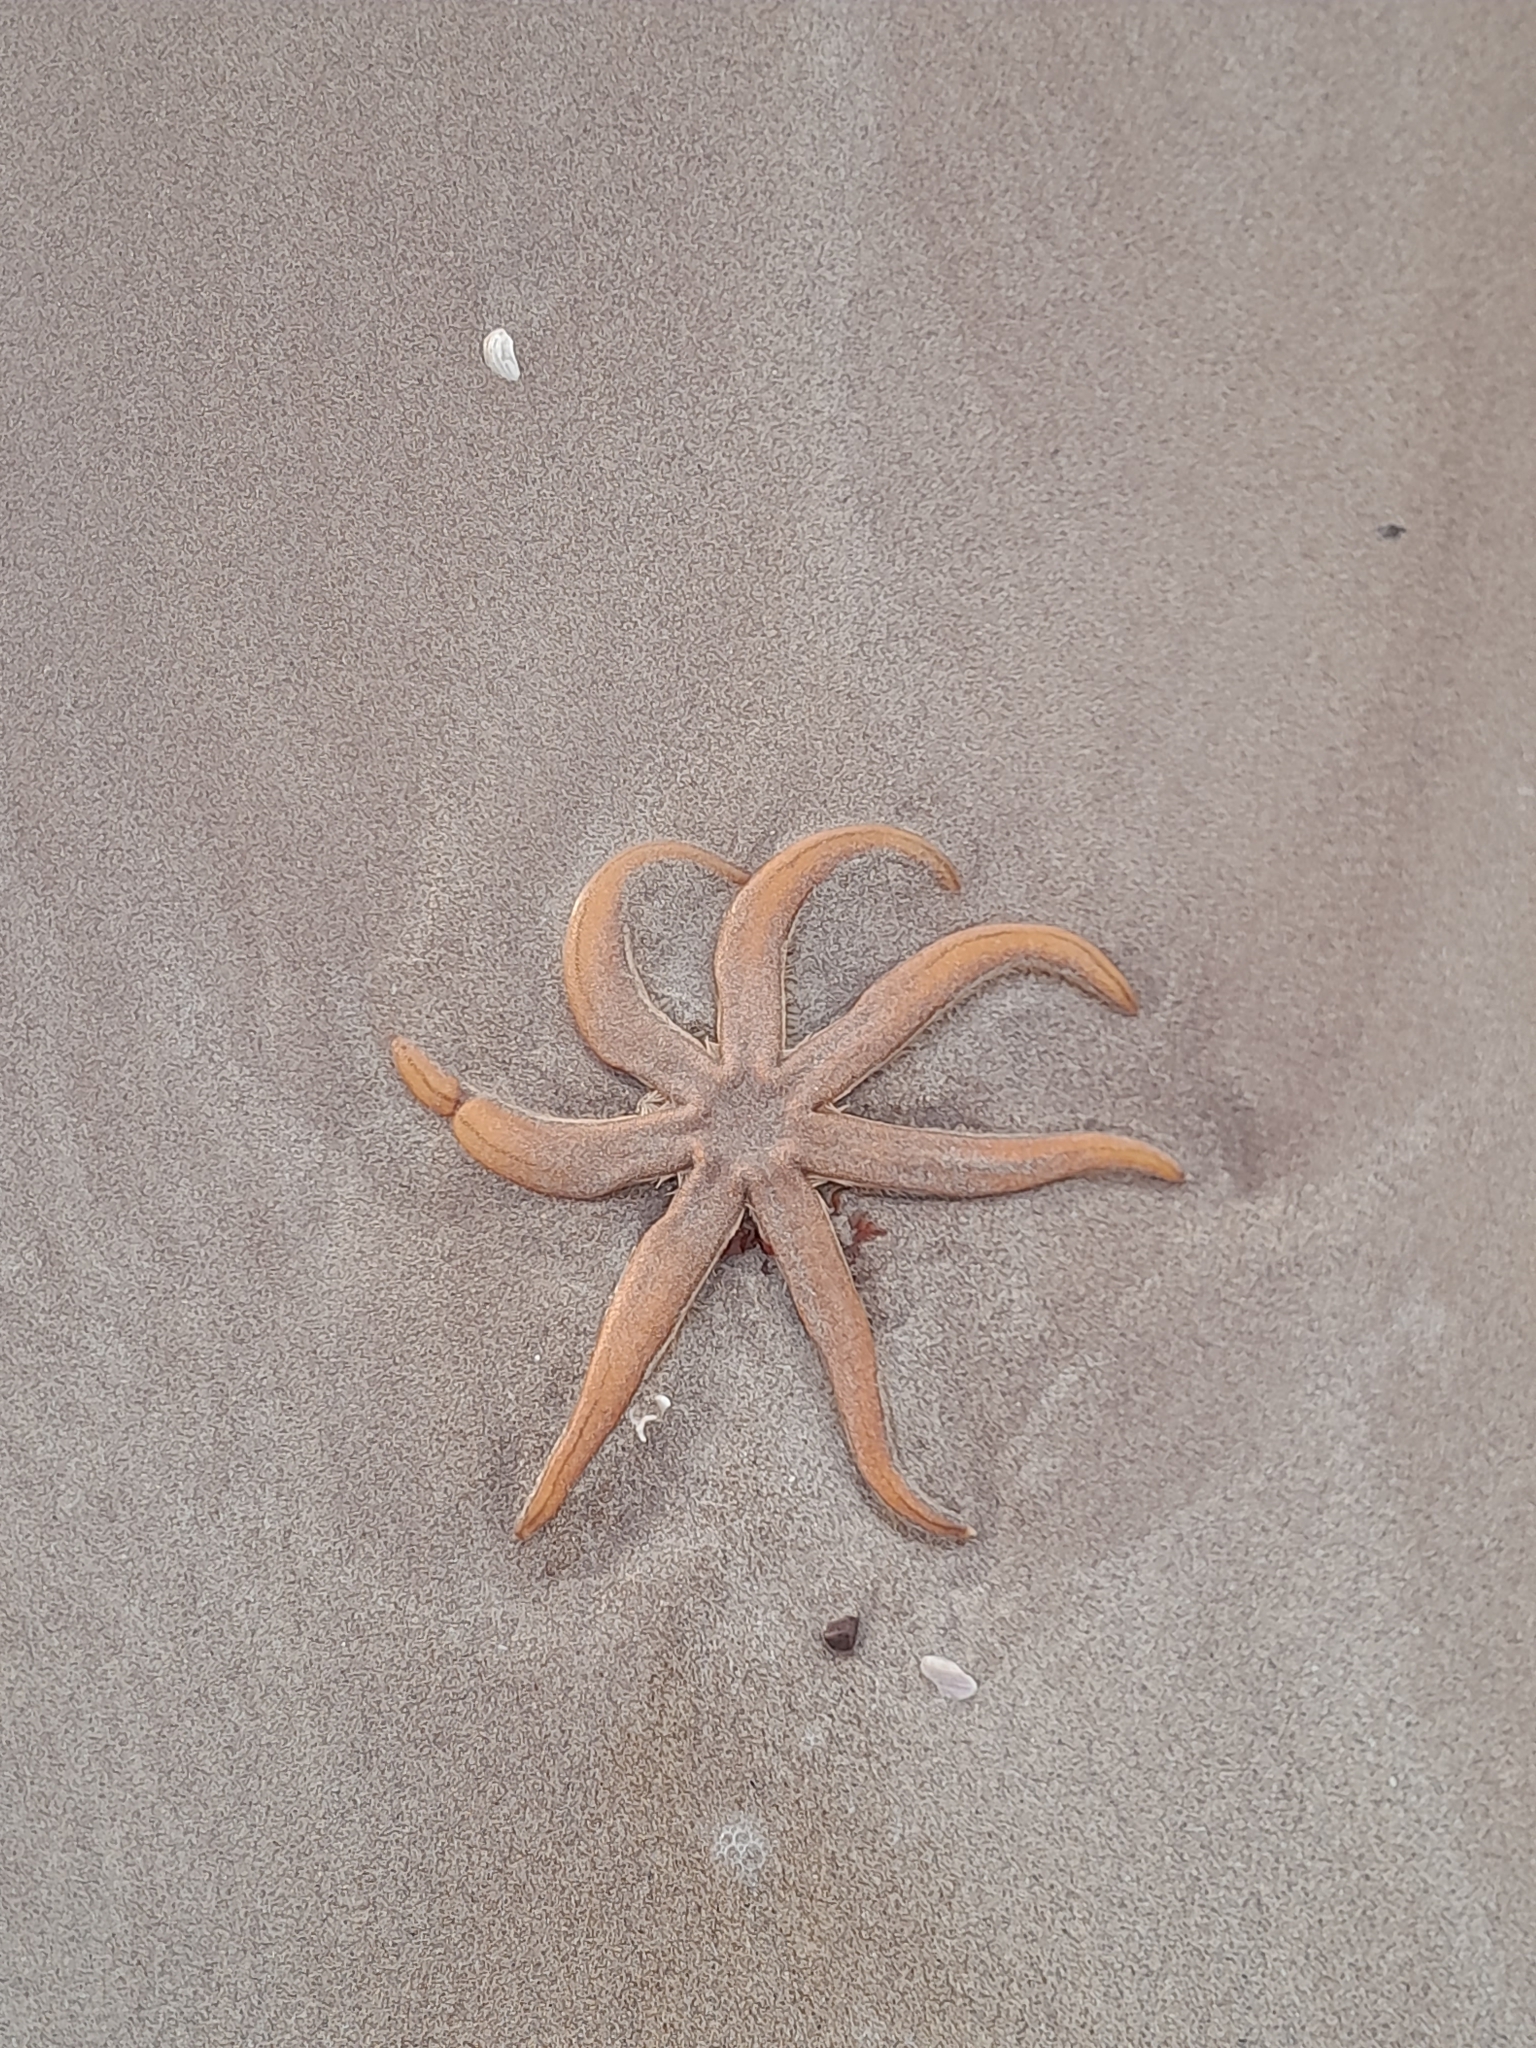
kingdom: Animalia
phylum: Echinodermata
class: Asteroidea
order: Paxillosida
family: Luidiidae
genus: Luidia
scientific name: Luidia ciliaris
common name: Seven-armed starfish
